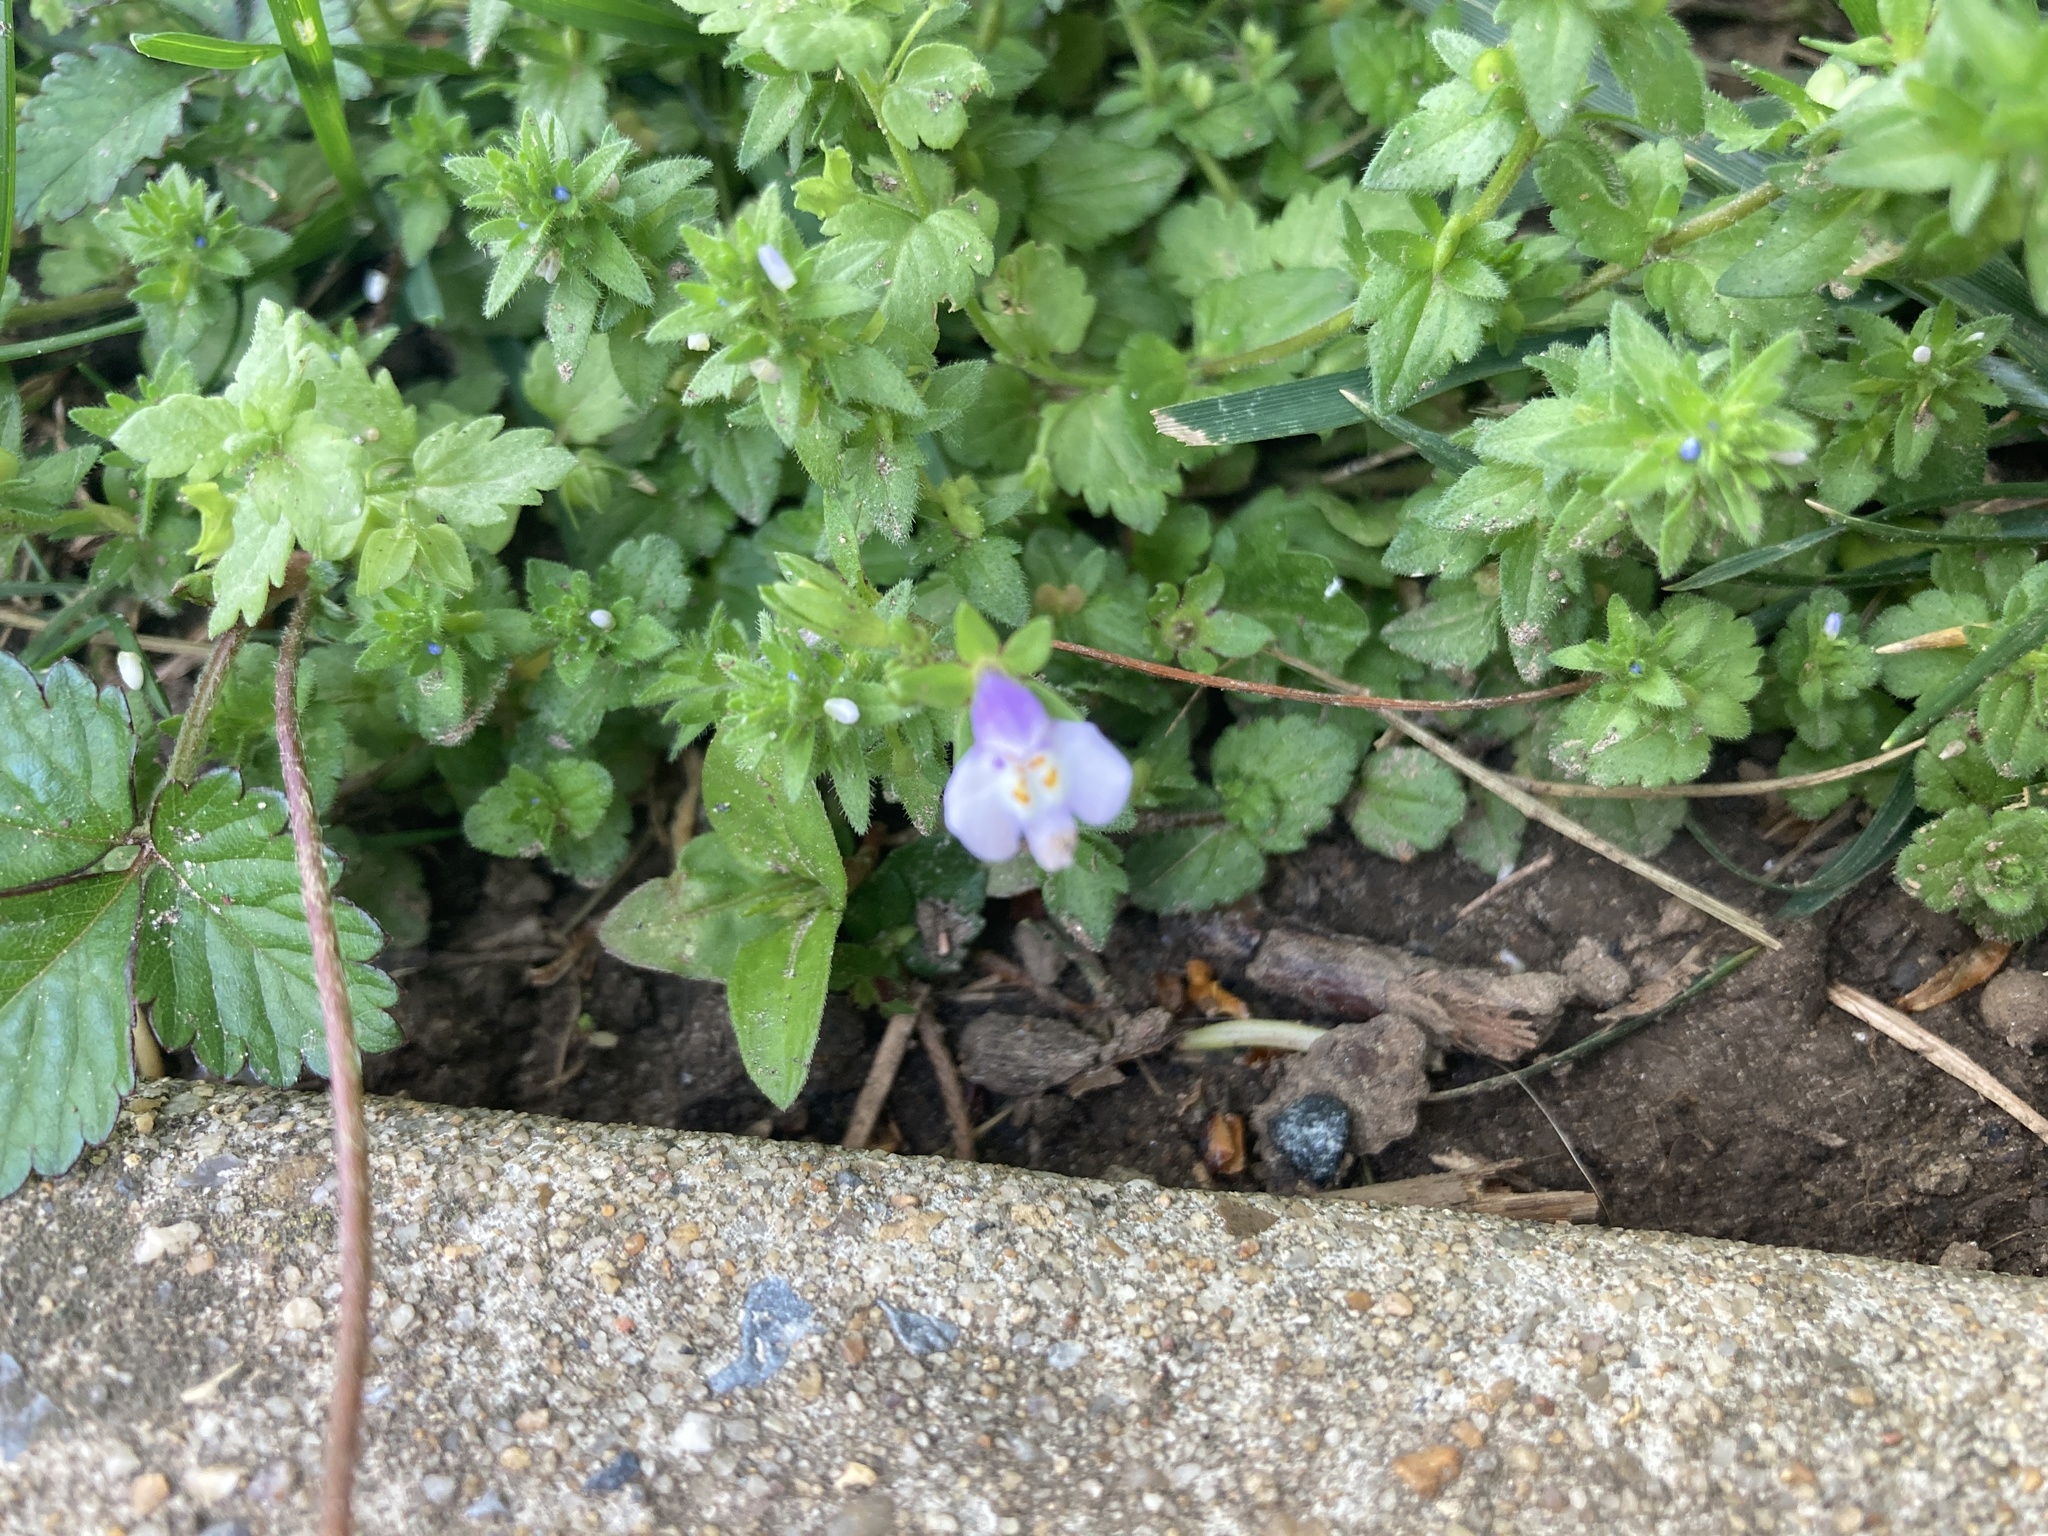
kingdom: Plantae
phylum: Tracheophyta
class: Magnoliopsida
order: Lamiales
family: Mazaceae
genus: Mazus
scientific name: Mazus pumilus
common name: Japanese mazus
